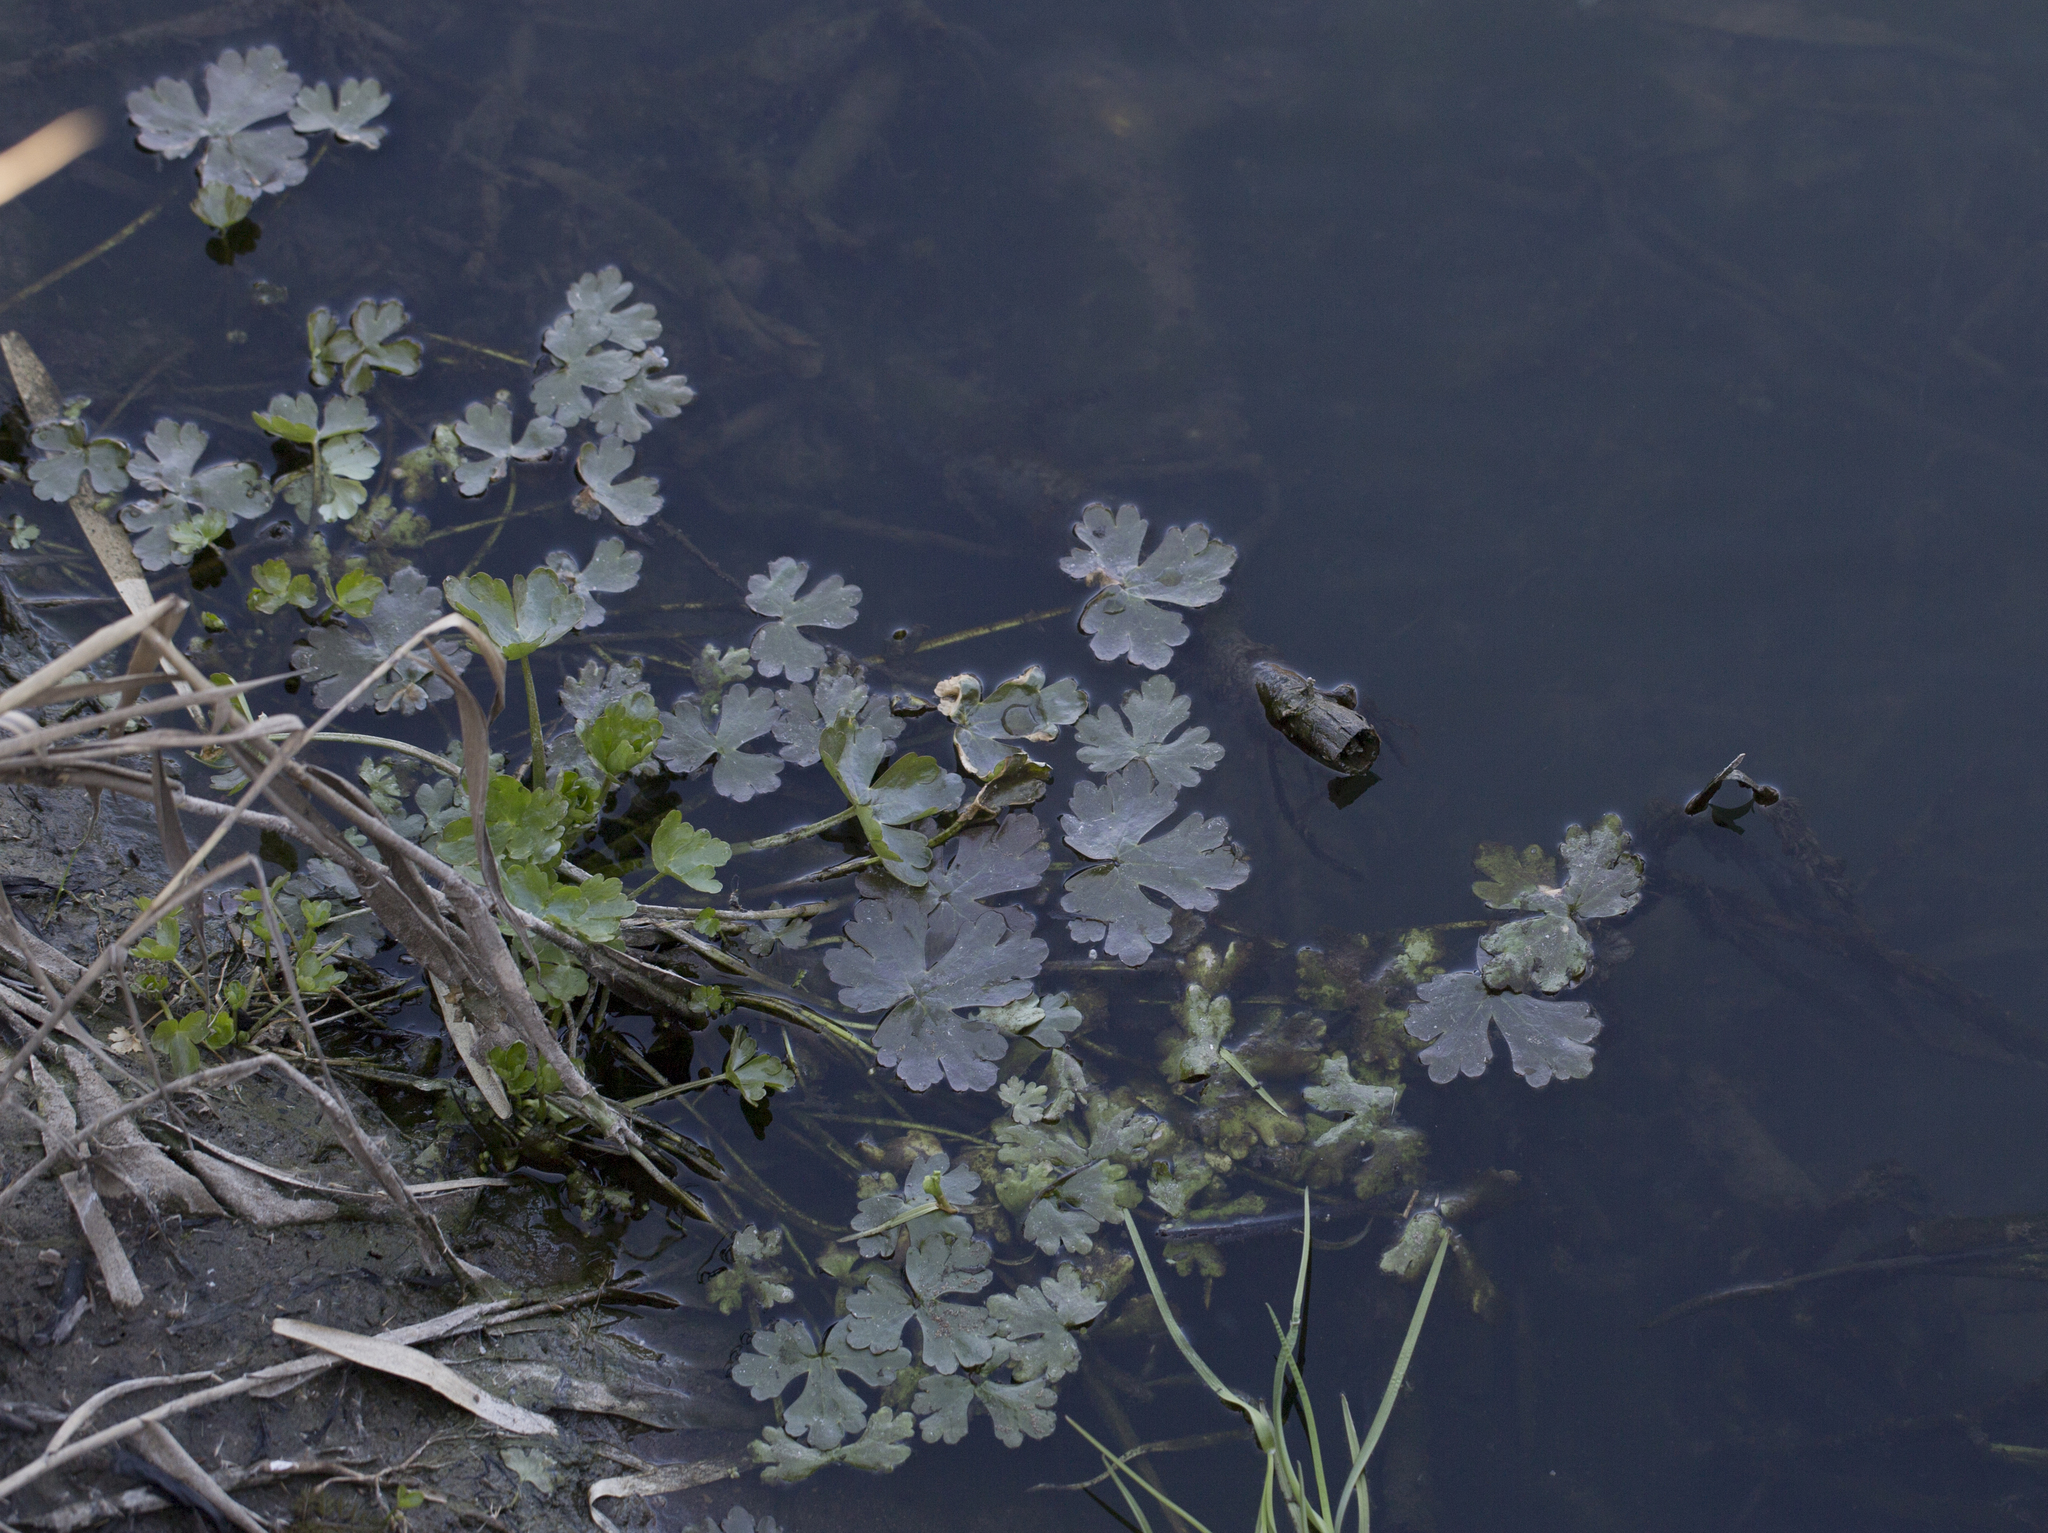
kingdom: Plantae
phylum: Tracheophyta
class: Magnoliopsida
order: Ranunculales
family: Ranunculaceae
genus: Ranunculus
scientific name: Ranunculus sceleratus
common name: Celery-leaved buttercup
